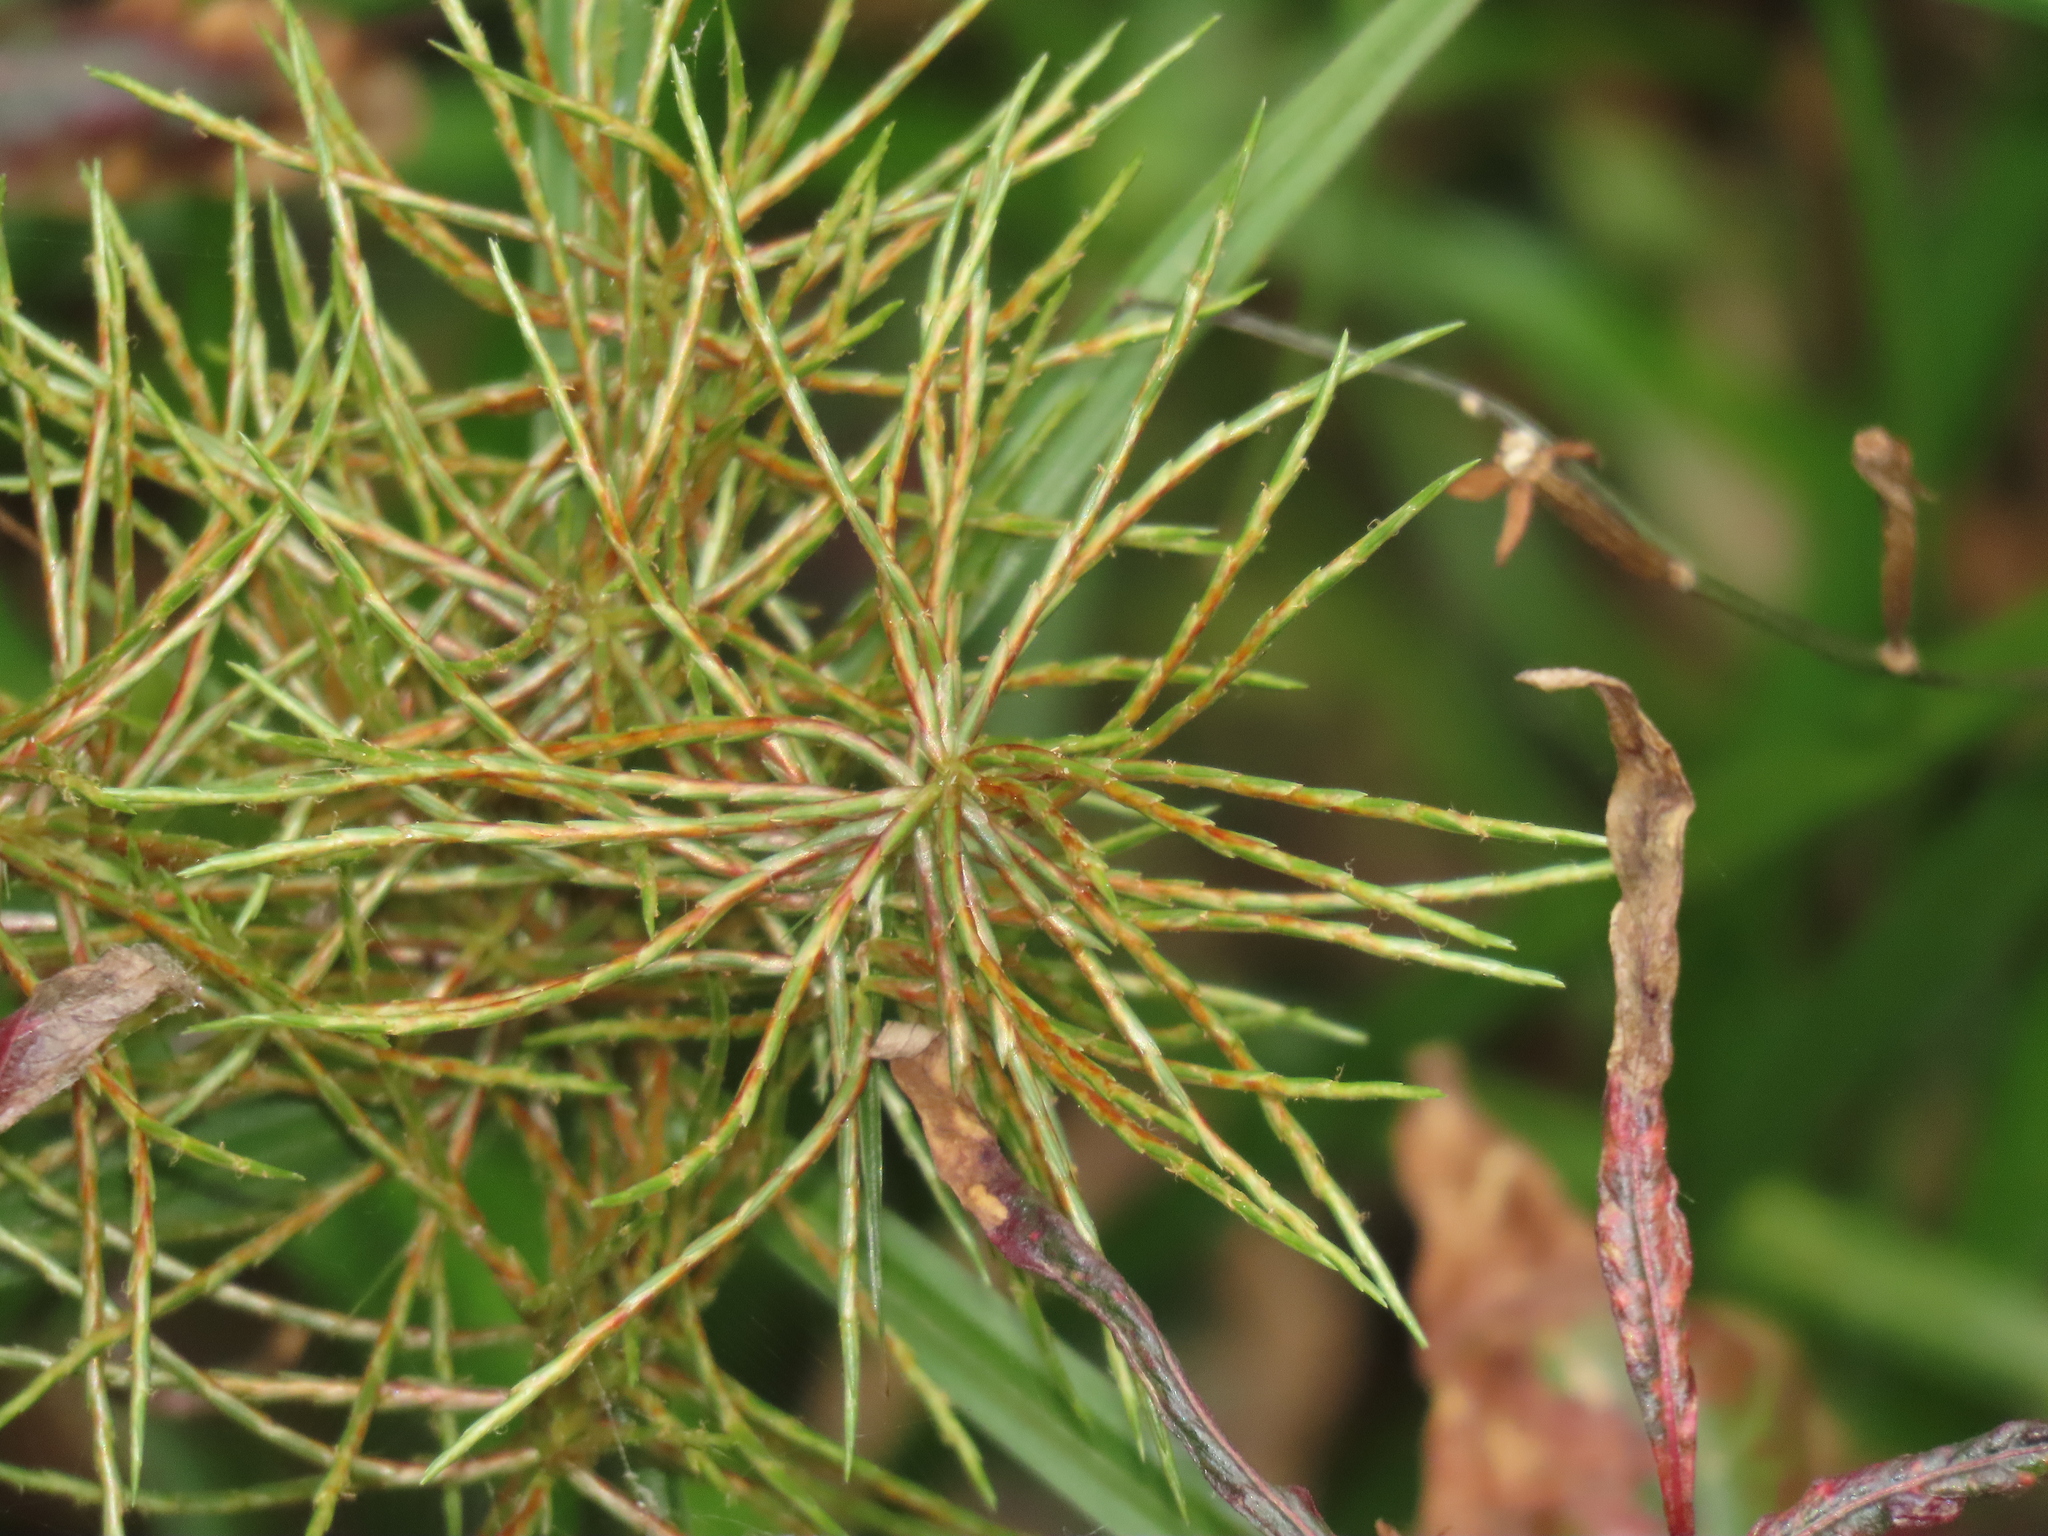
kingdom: Plantae
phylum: Tracheophyta
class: Liliopsida
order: Poales
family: Cyperaceae
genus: Cyperus
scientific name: Cyperus odoratus
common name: Fragrant flatsedge
